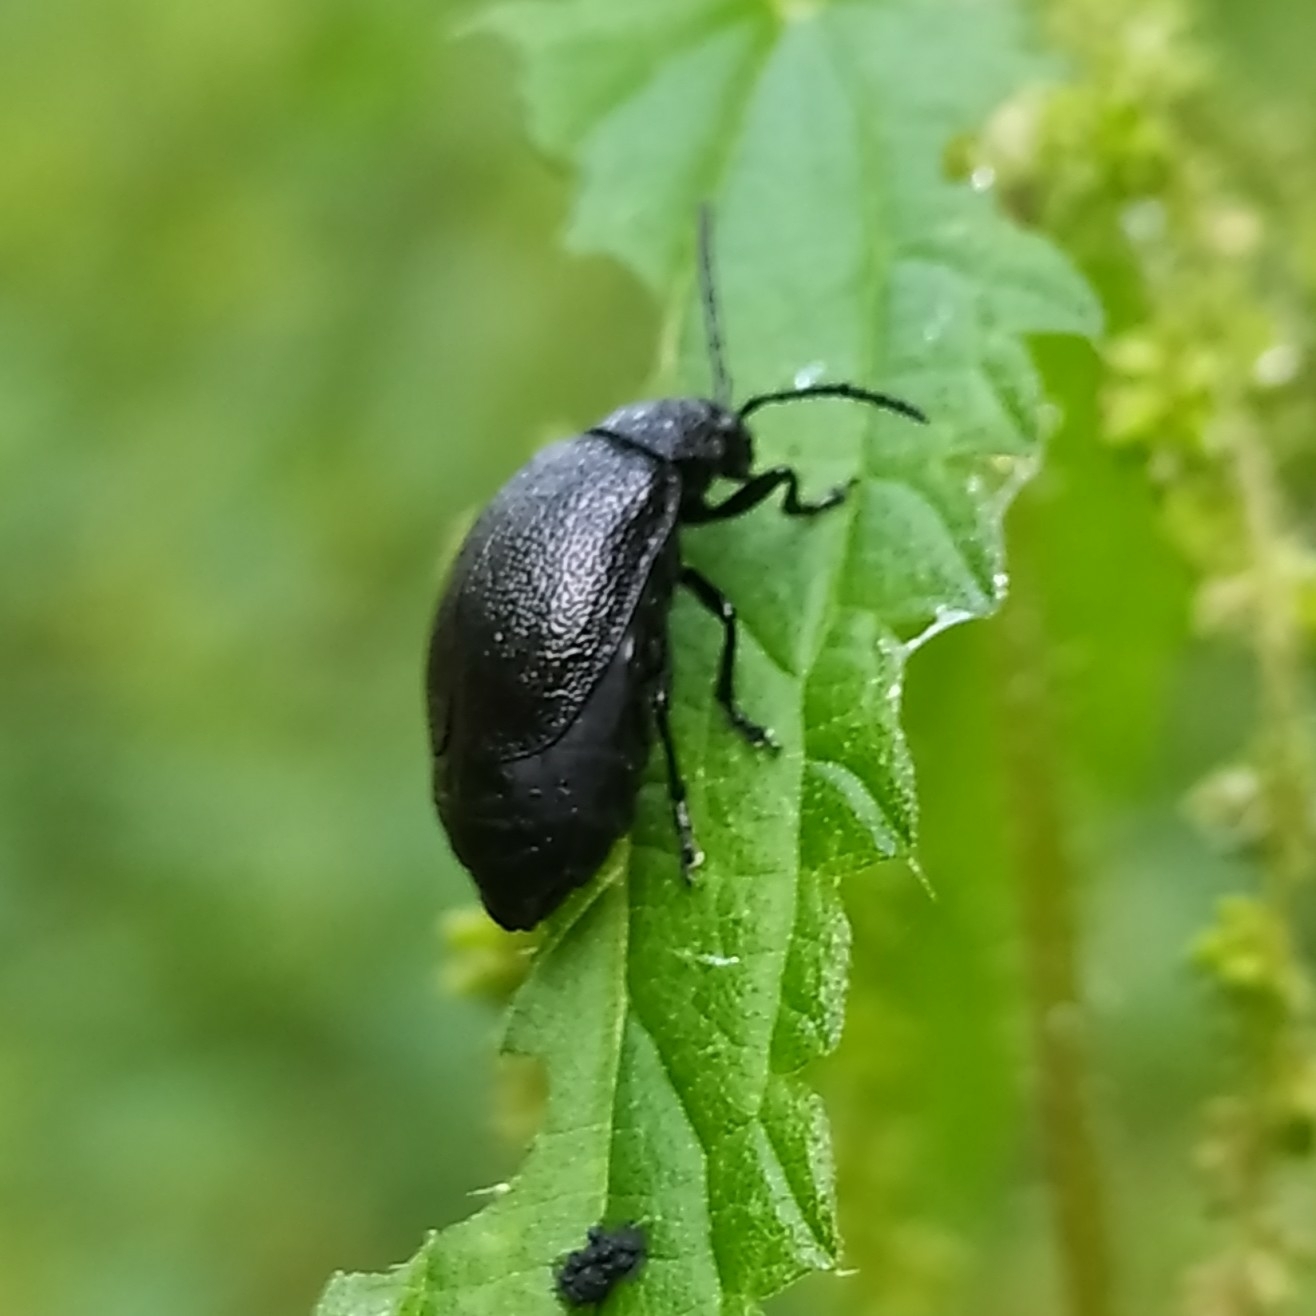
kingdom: Animalia
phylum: Arthropoda
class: Insecta
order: Coleoptera
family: Chrysomelidae
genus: Galeruca
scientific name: Galeruca tanaceti
